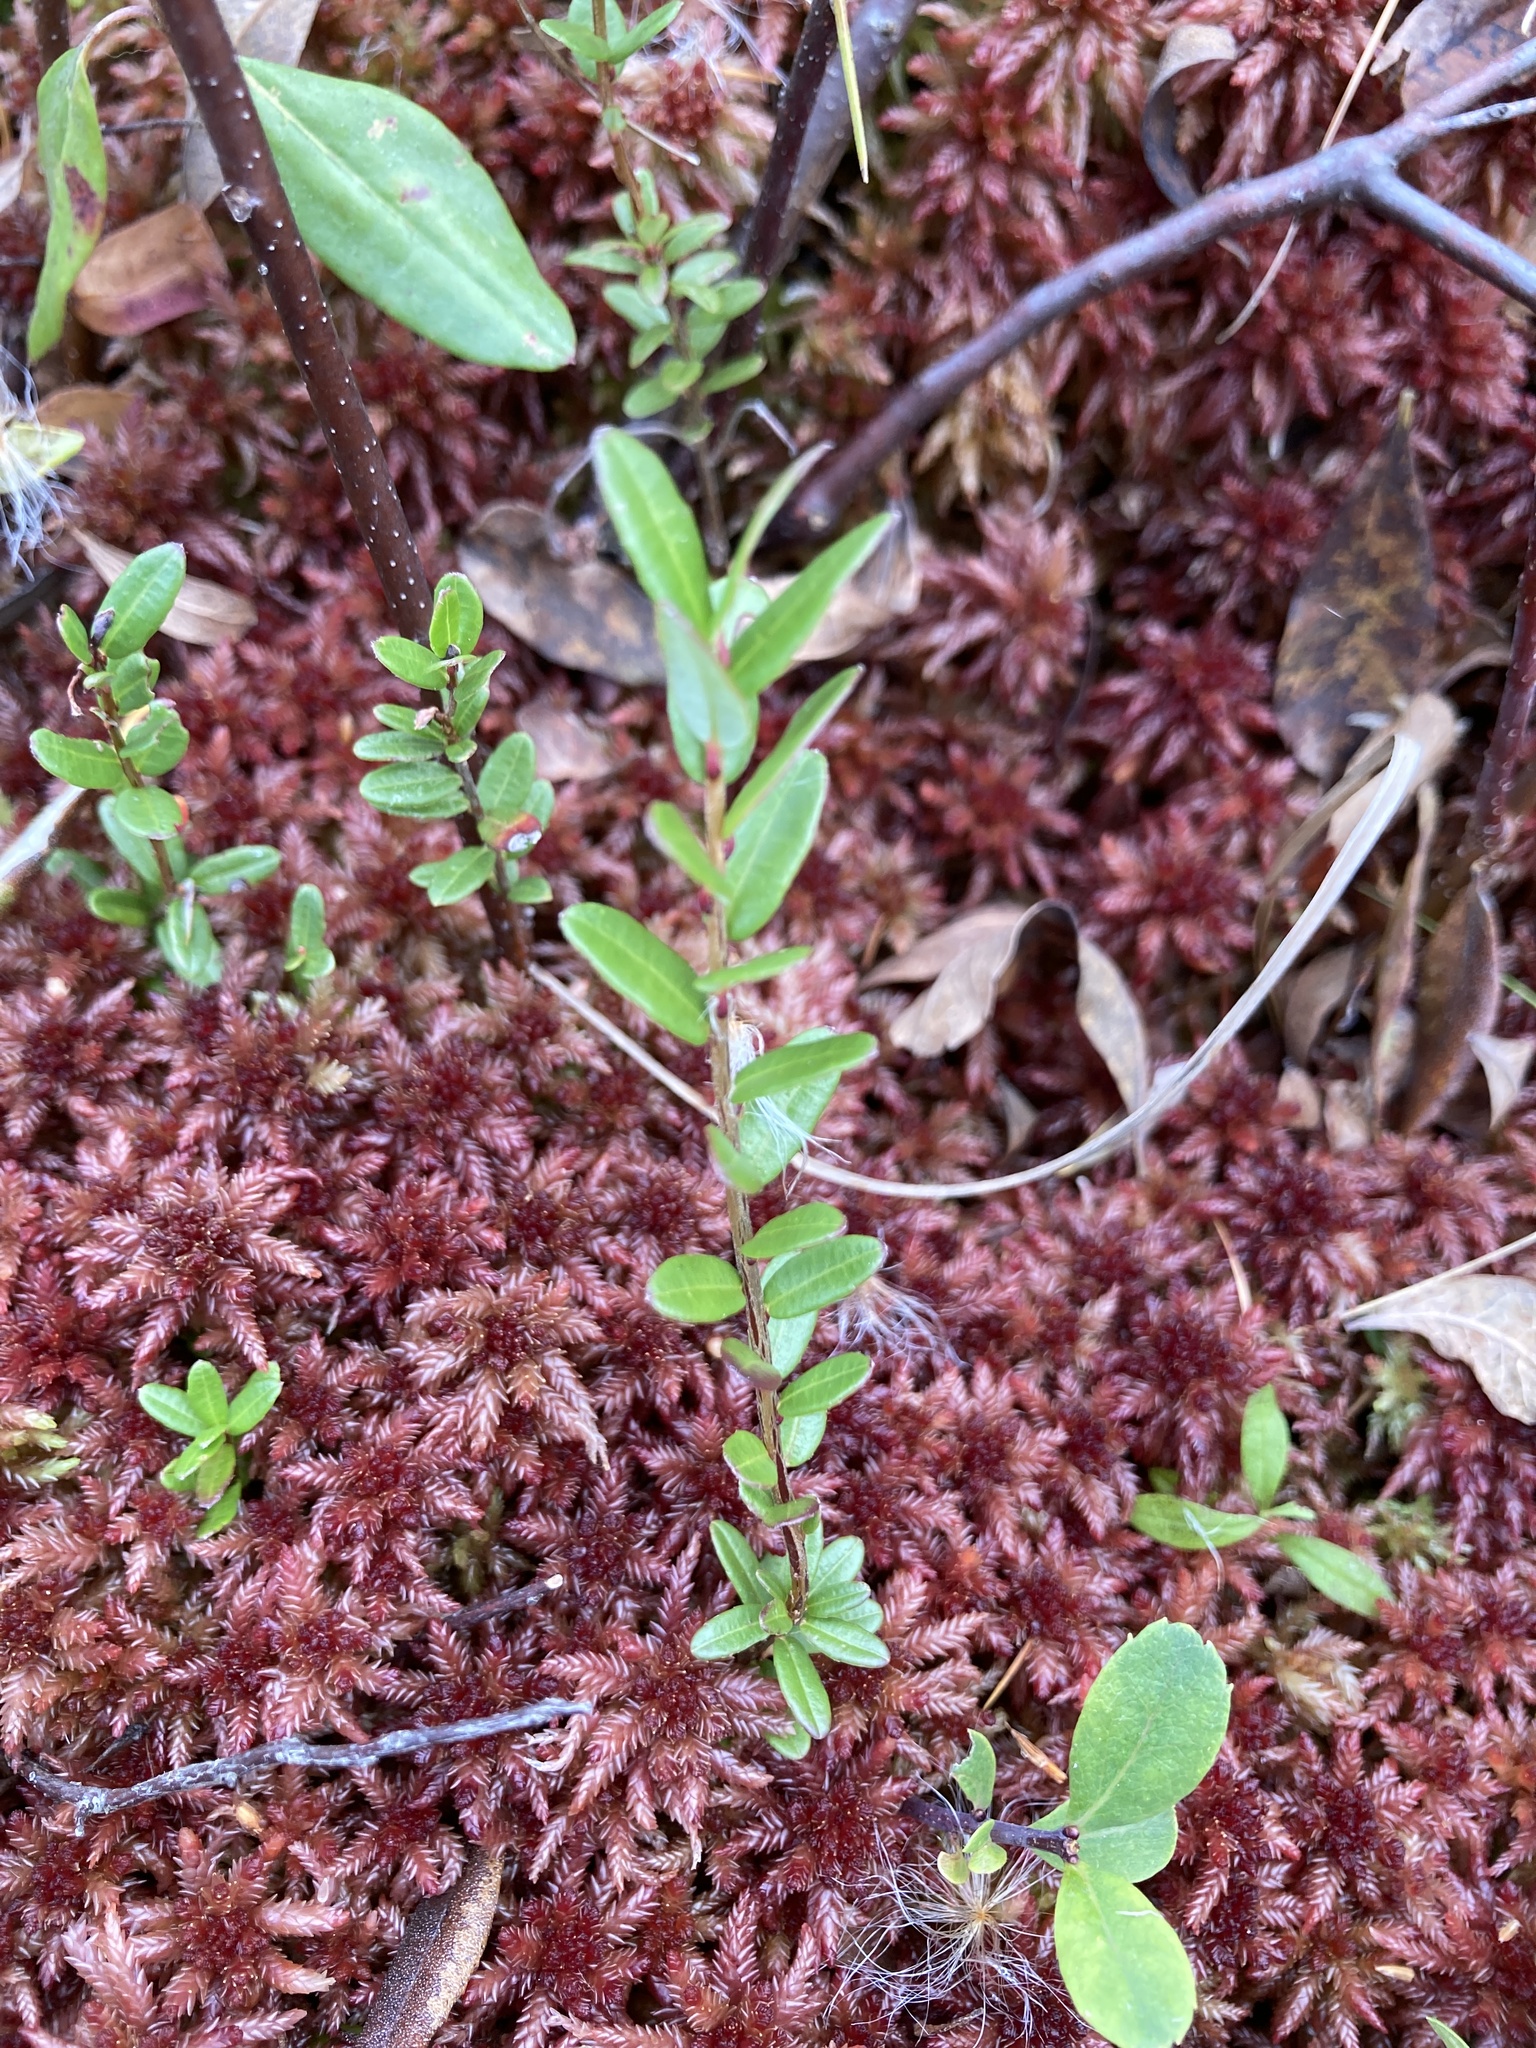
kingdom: Plantae
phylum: Tracheophyta
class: Magnoliopsida
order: Ericales
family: Ericaceae
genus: Vaccinium
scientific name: Vaccinium macrocarpon
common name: American cranberry
